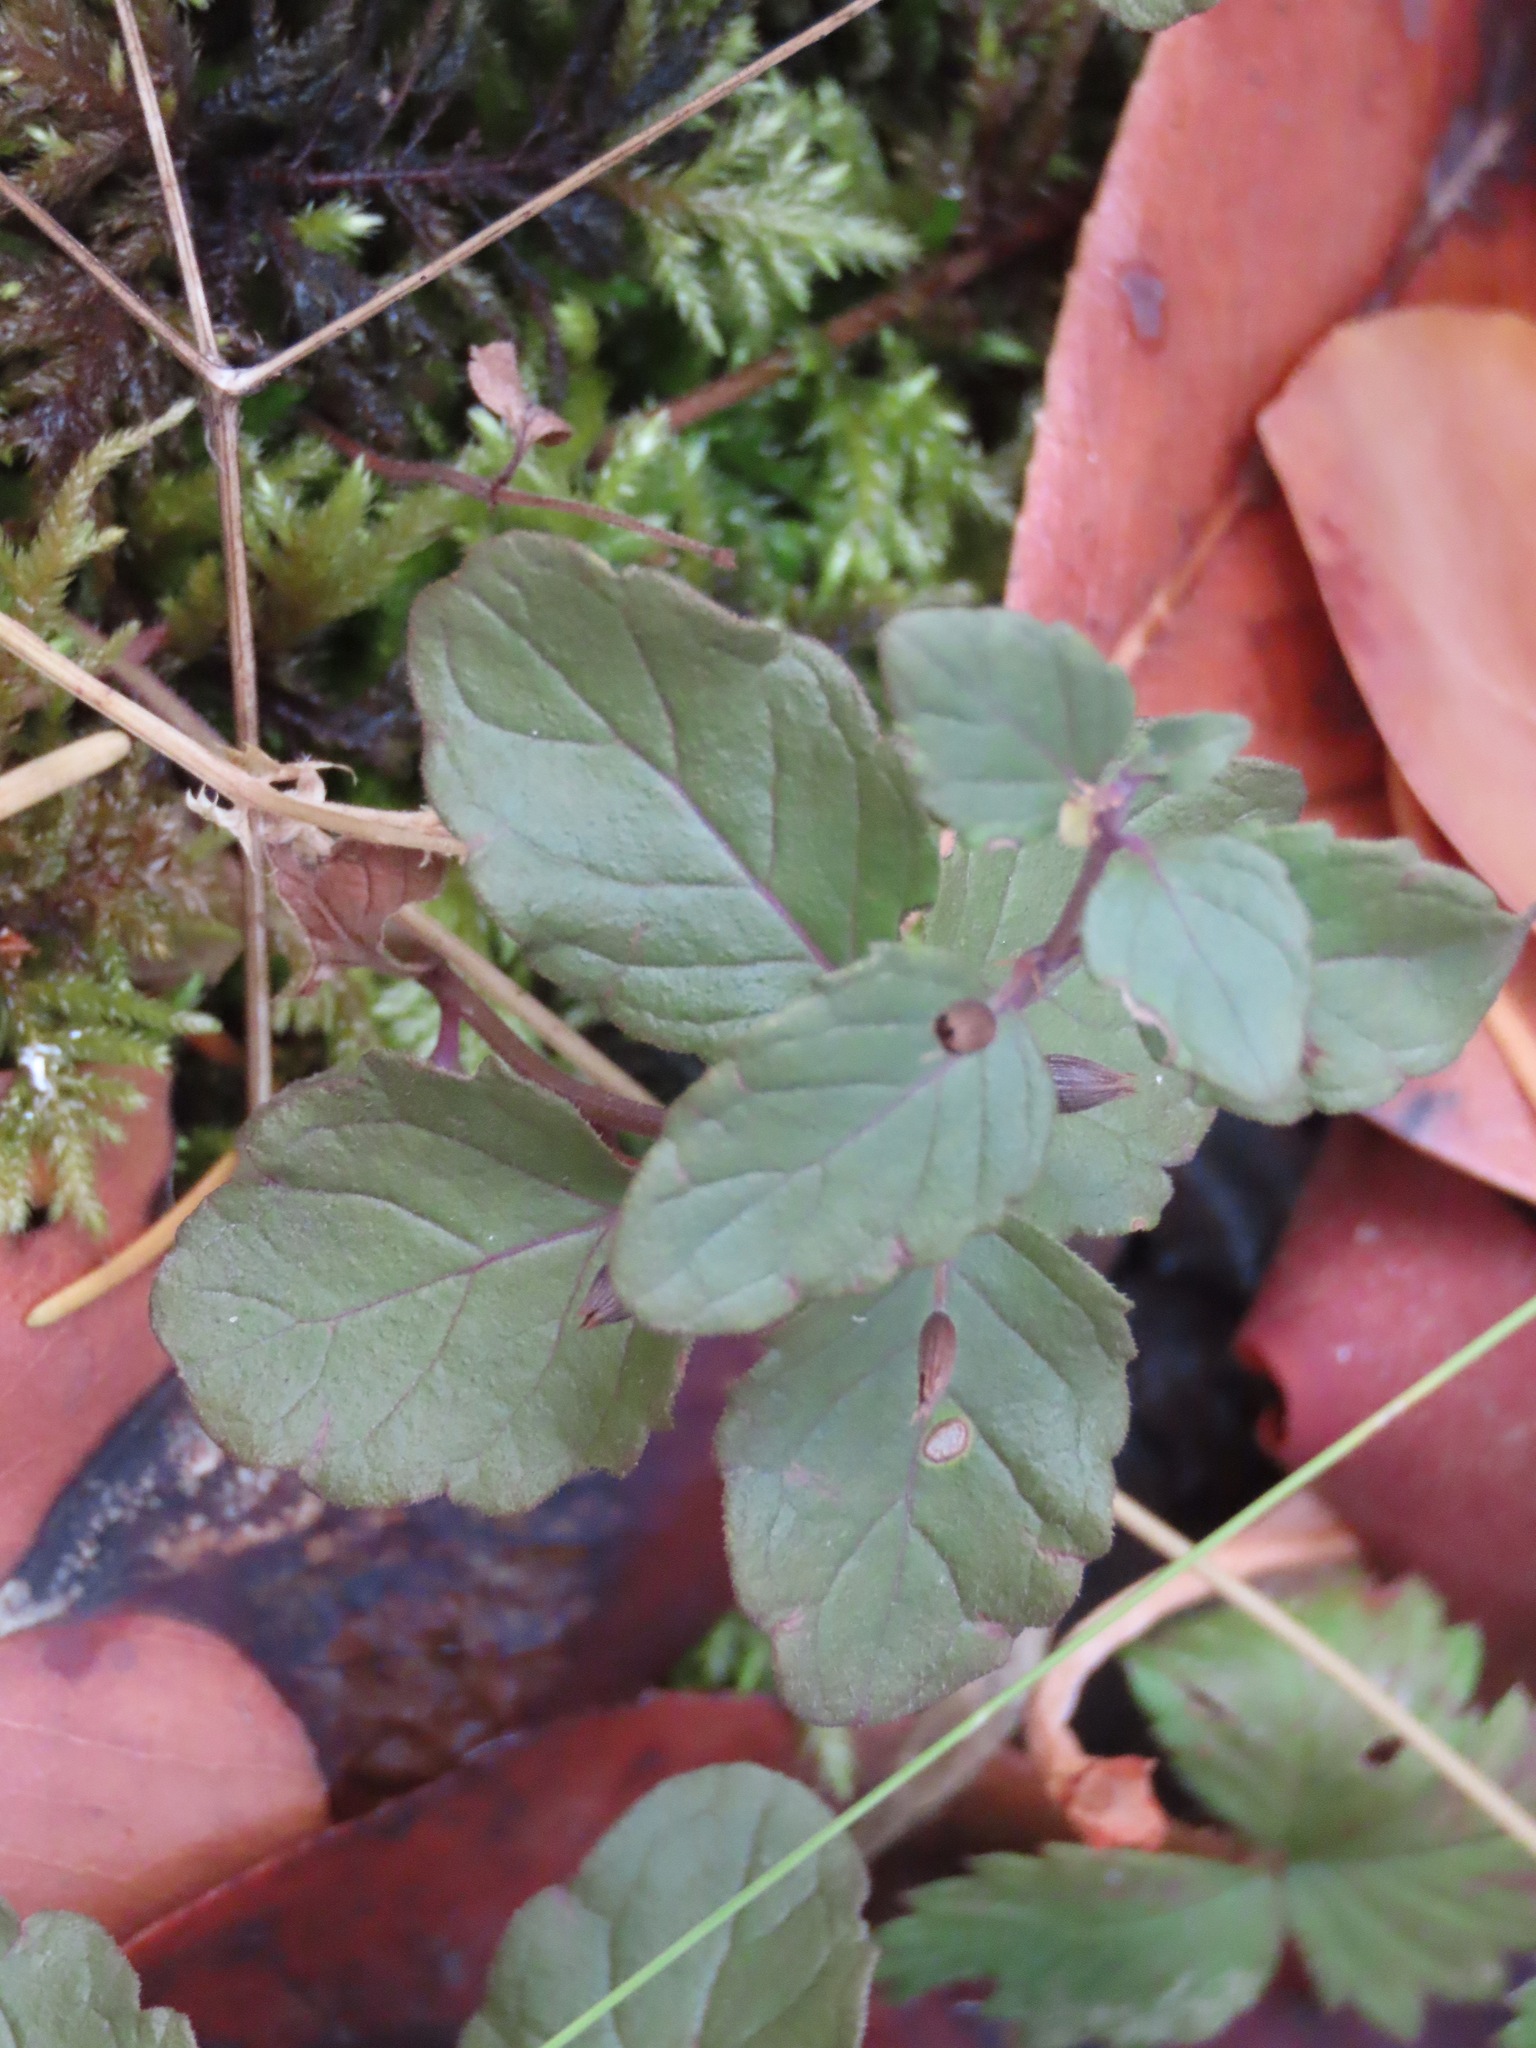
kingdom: Plantae
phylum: Tracheophyta
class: Magnoliopsida
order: Lamiales
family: Lamiaceae
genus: Micromeria
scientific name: Micromeria douglasii
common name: Yerba buena
